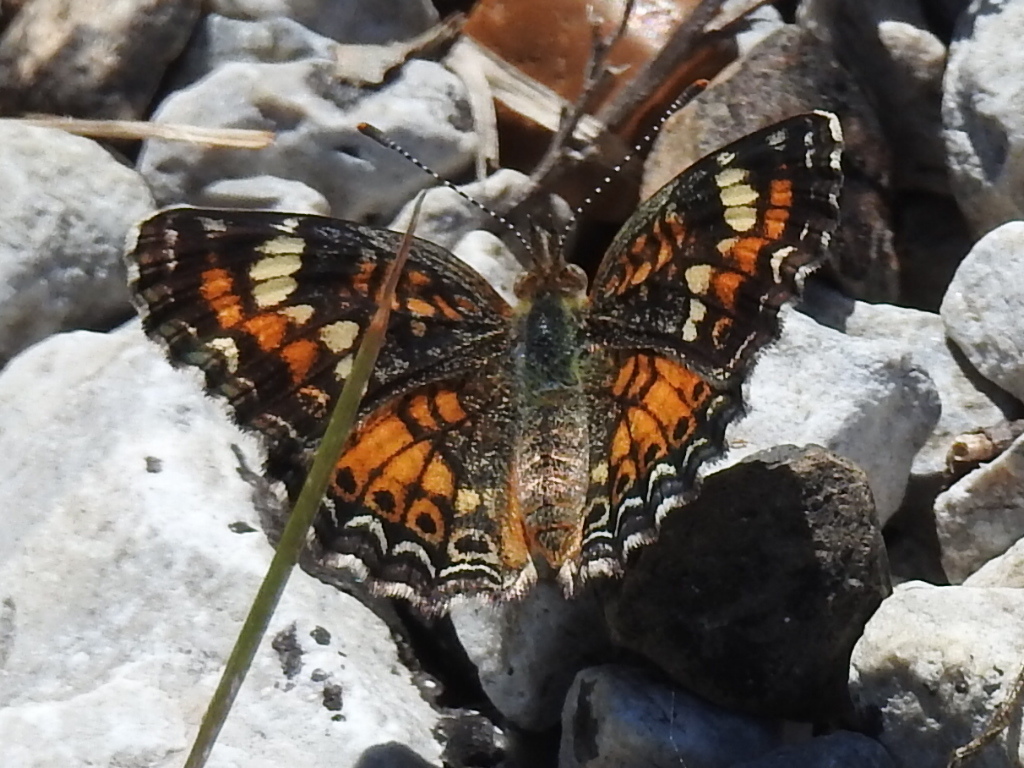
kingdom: Animalia
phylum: Arthropoda
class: Insecta
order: Lepidoptera
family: Nymphalidae
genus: Phyciodes
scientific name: Phyciodes phaon
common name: Phaon crescent
